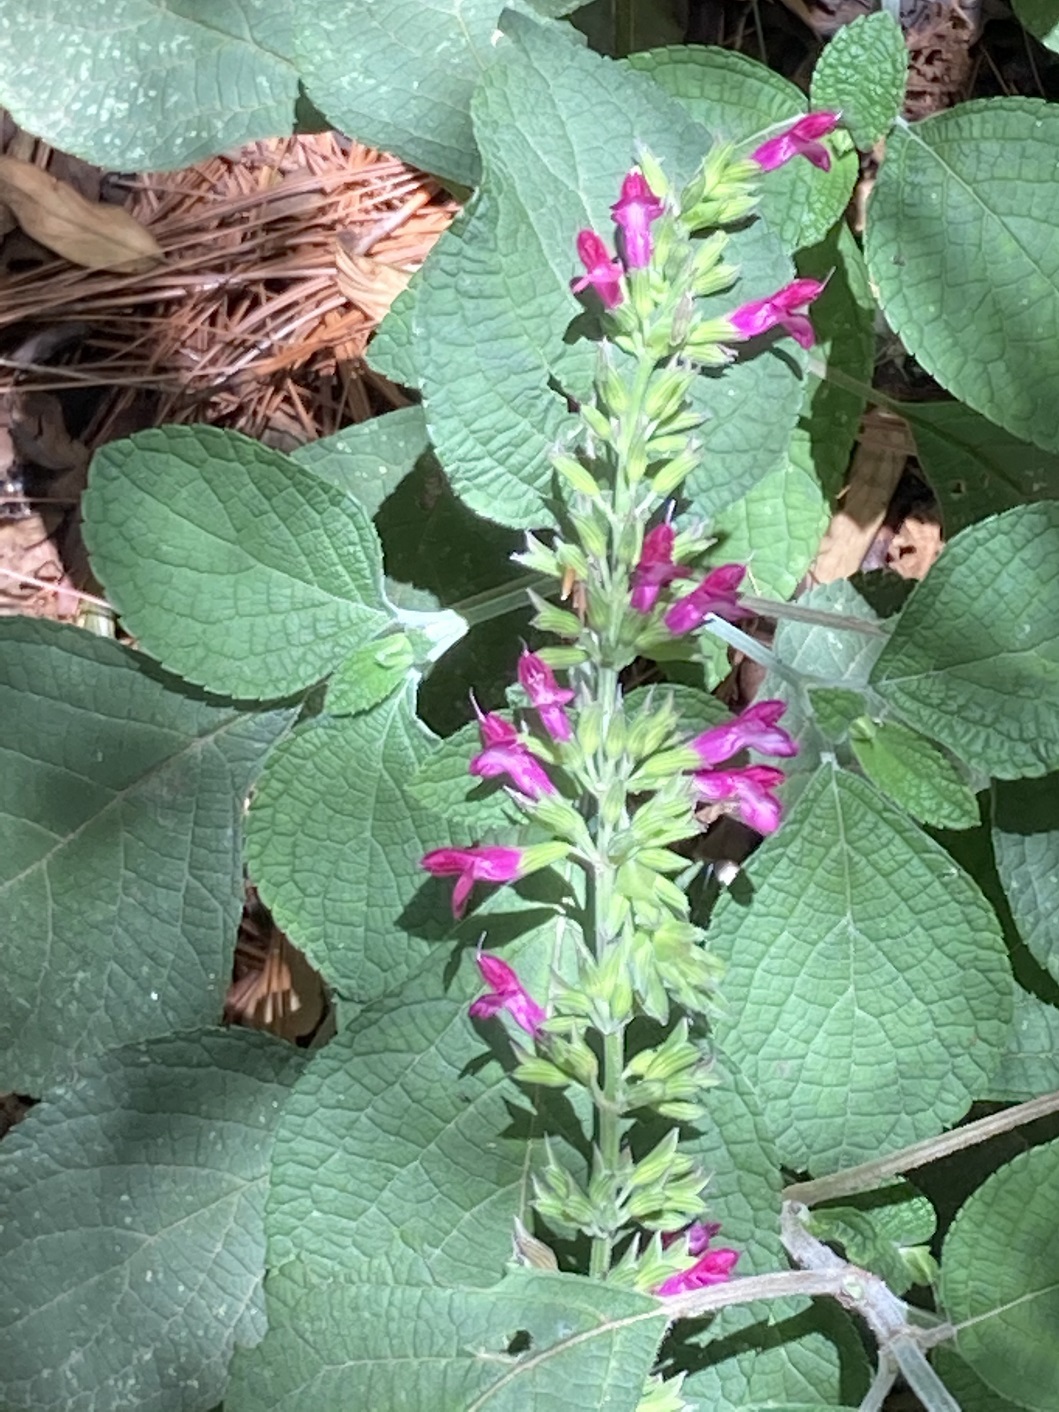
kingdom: Plantae
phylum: Tracheophyta
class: Magnoliopsida
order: Lamiales
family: Lamiaceae
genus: Salvia
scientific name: Salvia chiapensis
